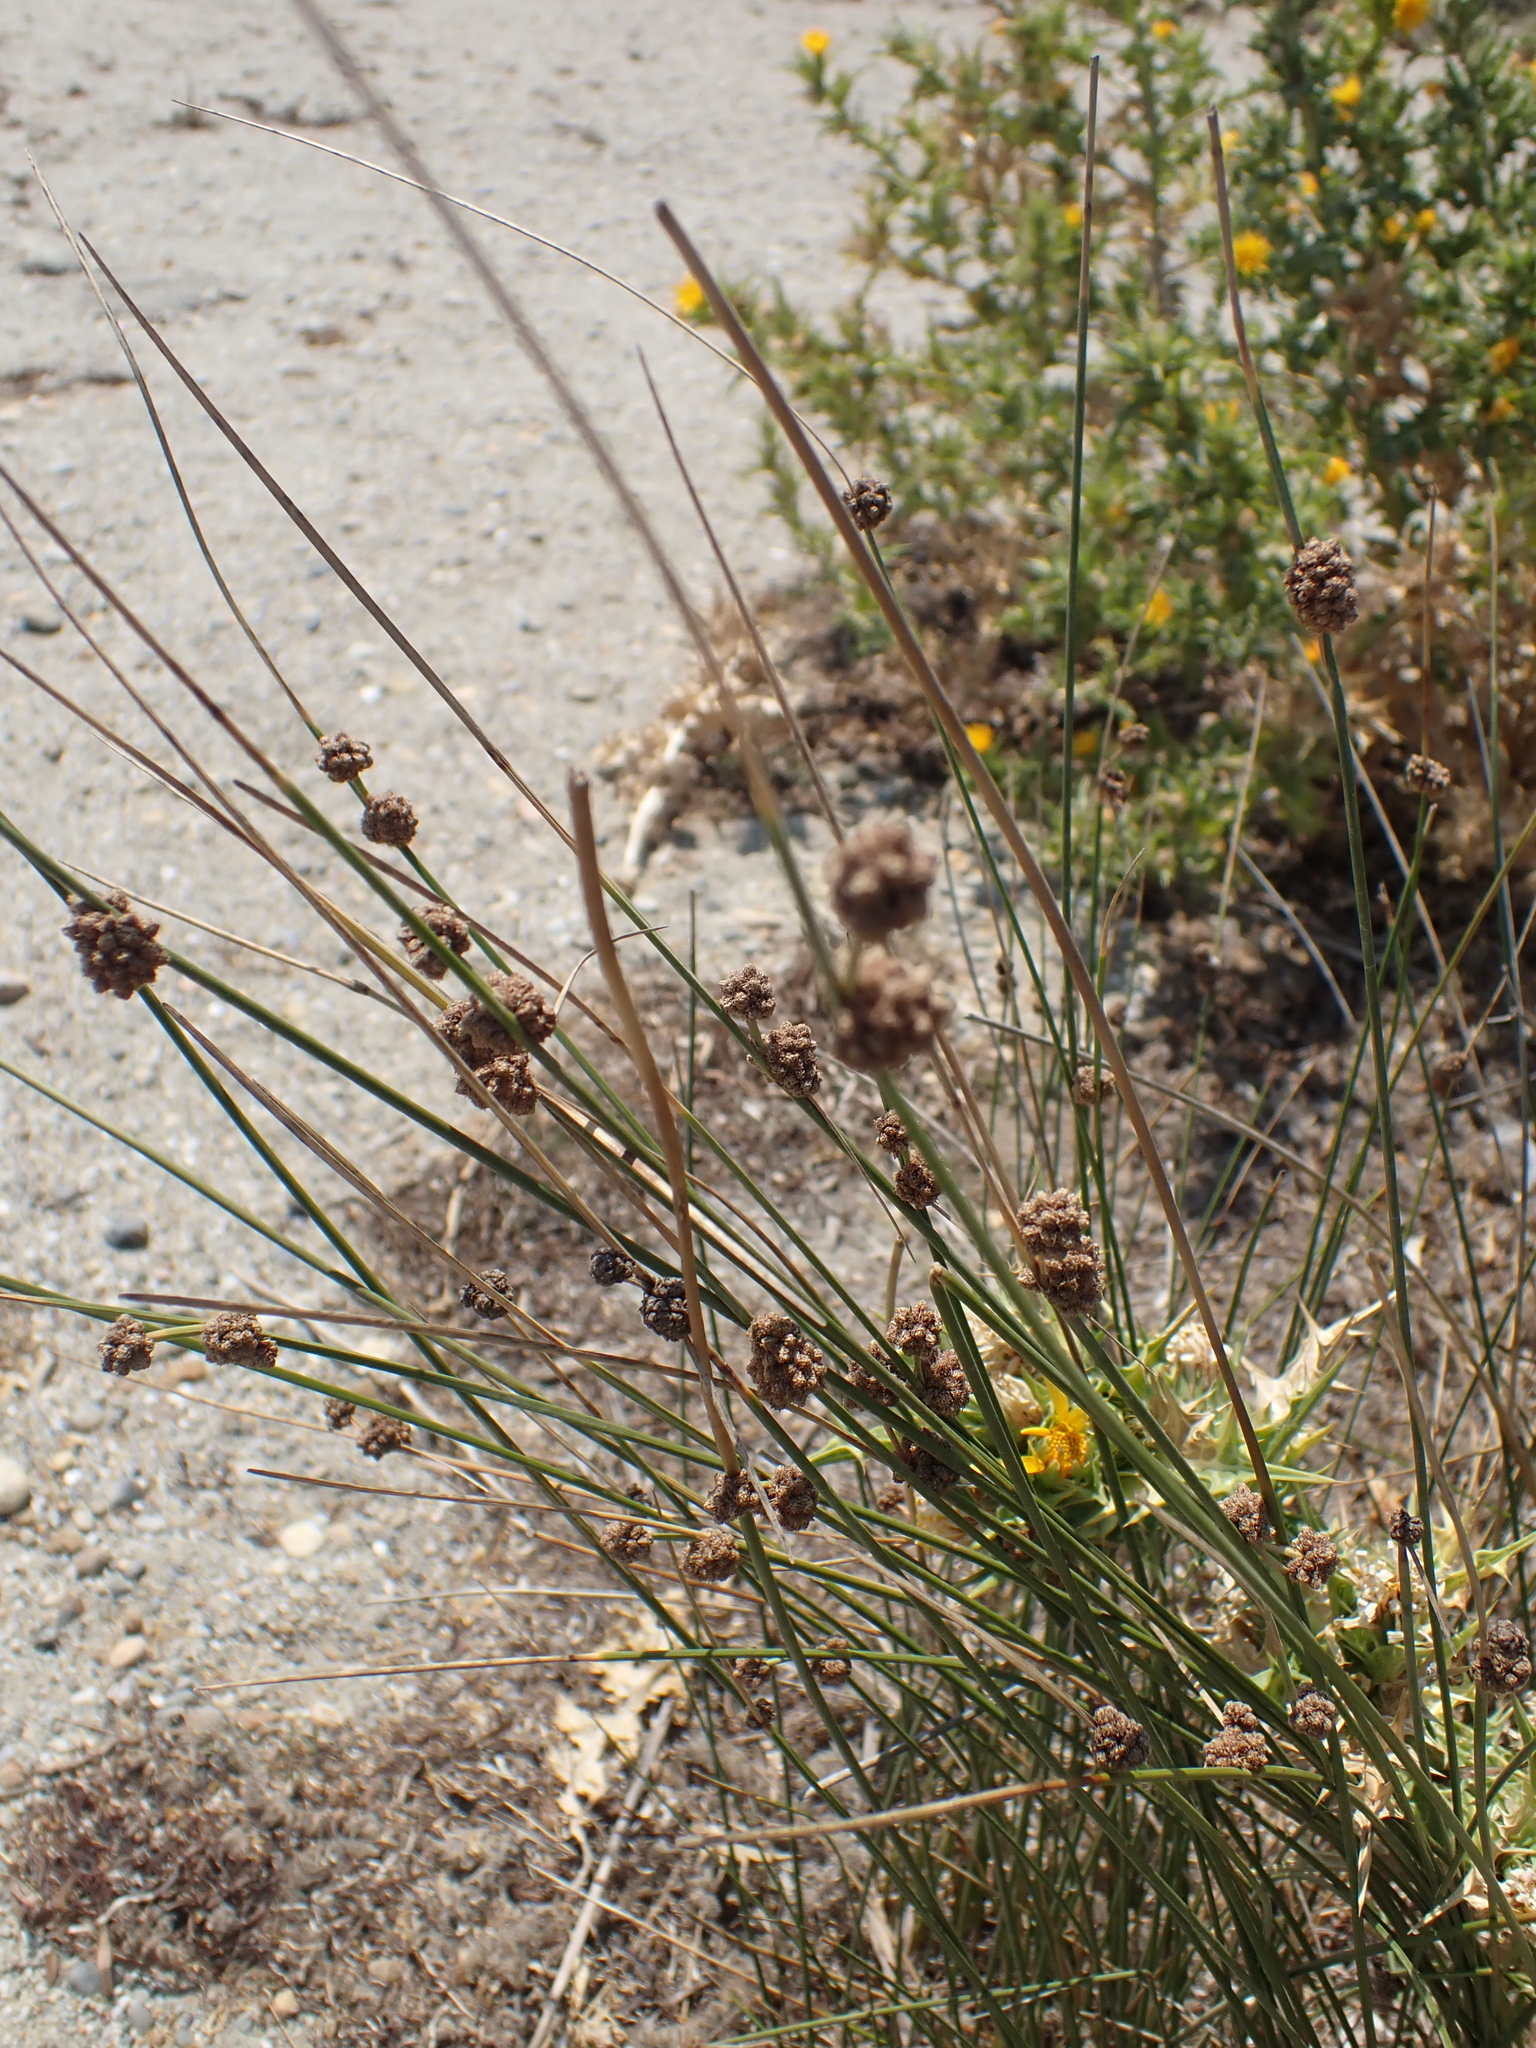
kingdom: Plantae
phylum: Tracheophyta
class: Liliopsida
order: Poales
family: Cyperaceae
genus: Scirpoides
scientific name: Scirpoides holoschoenus
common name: Round-headed club-rush
